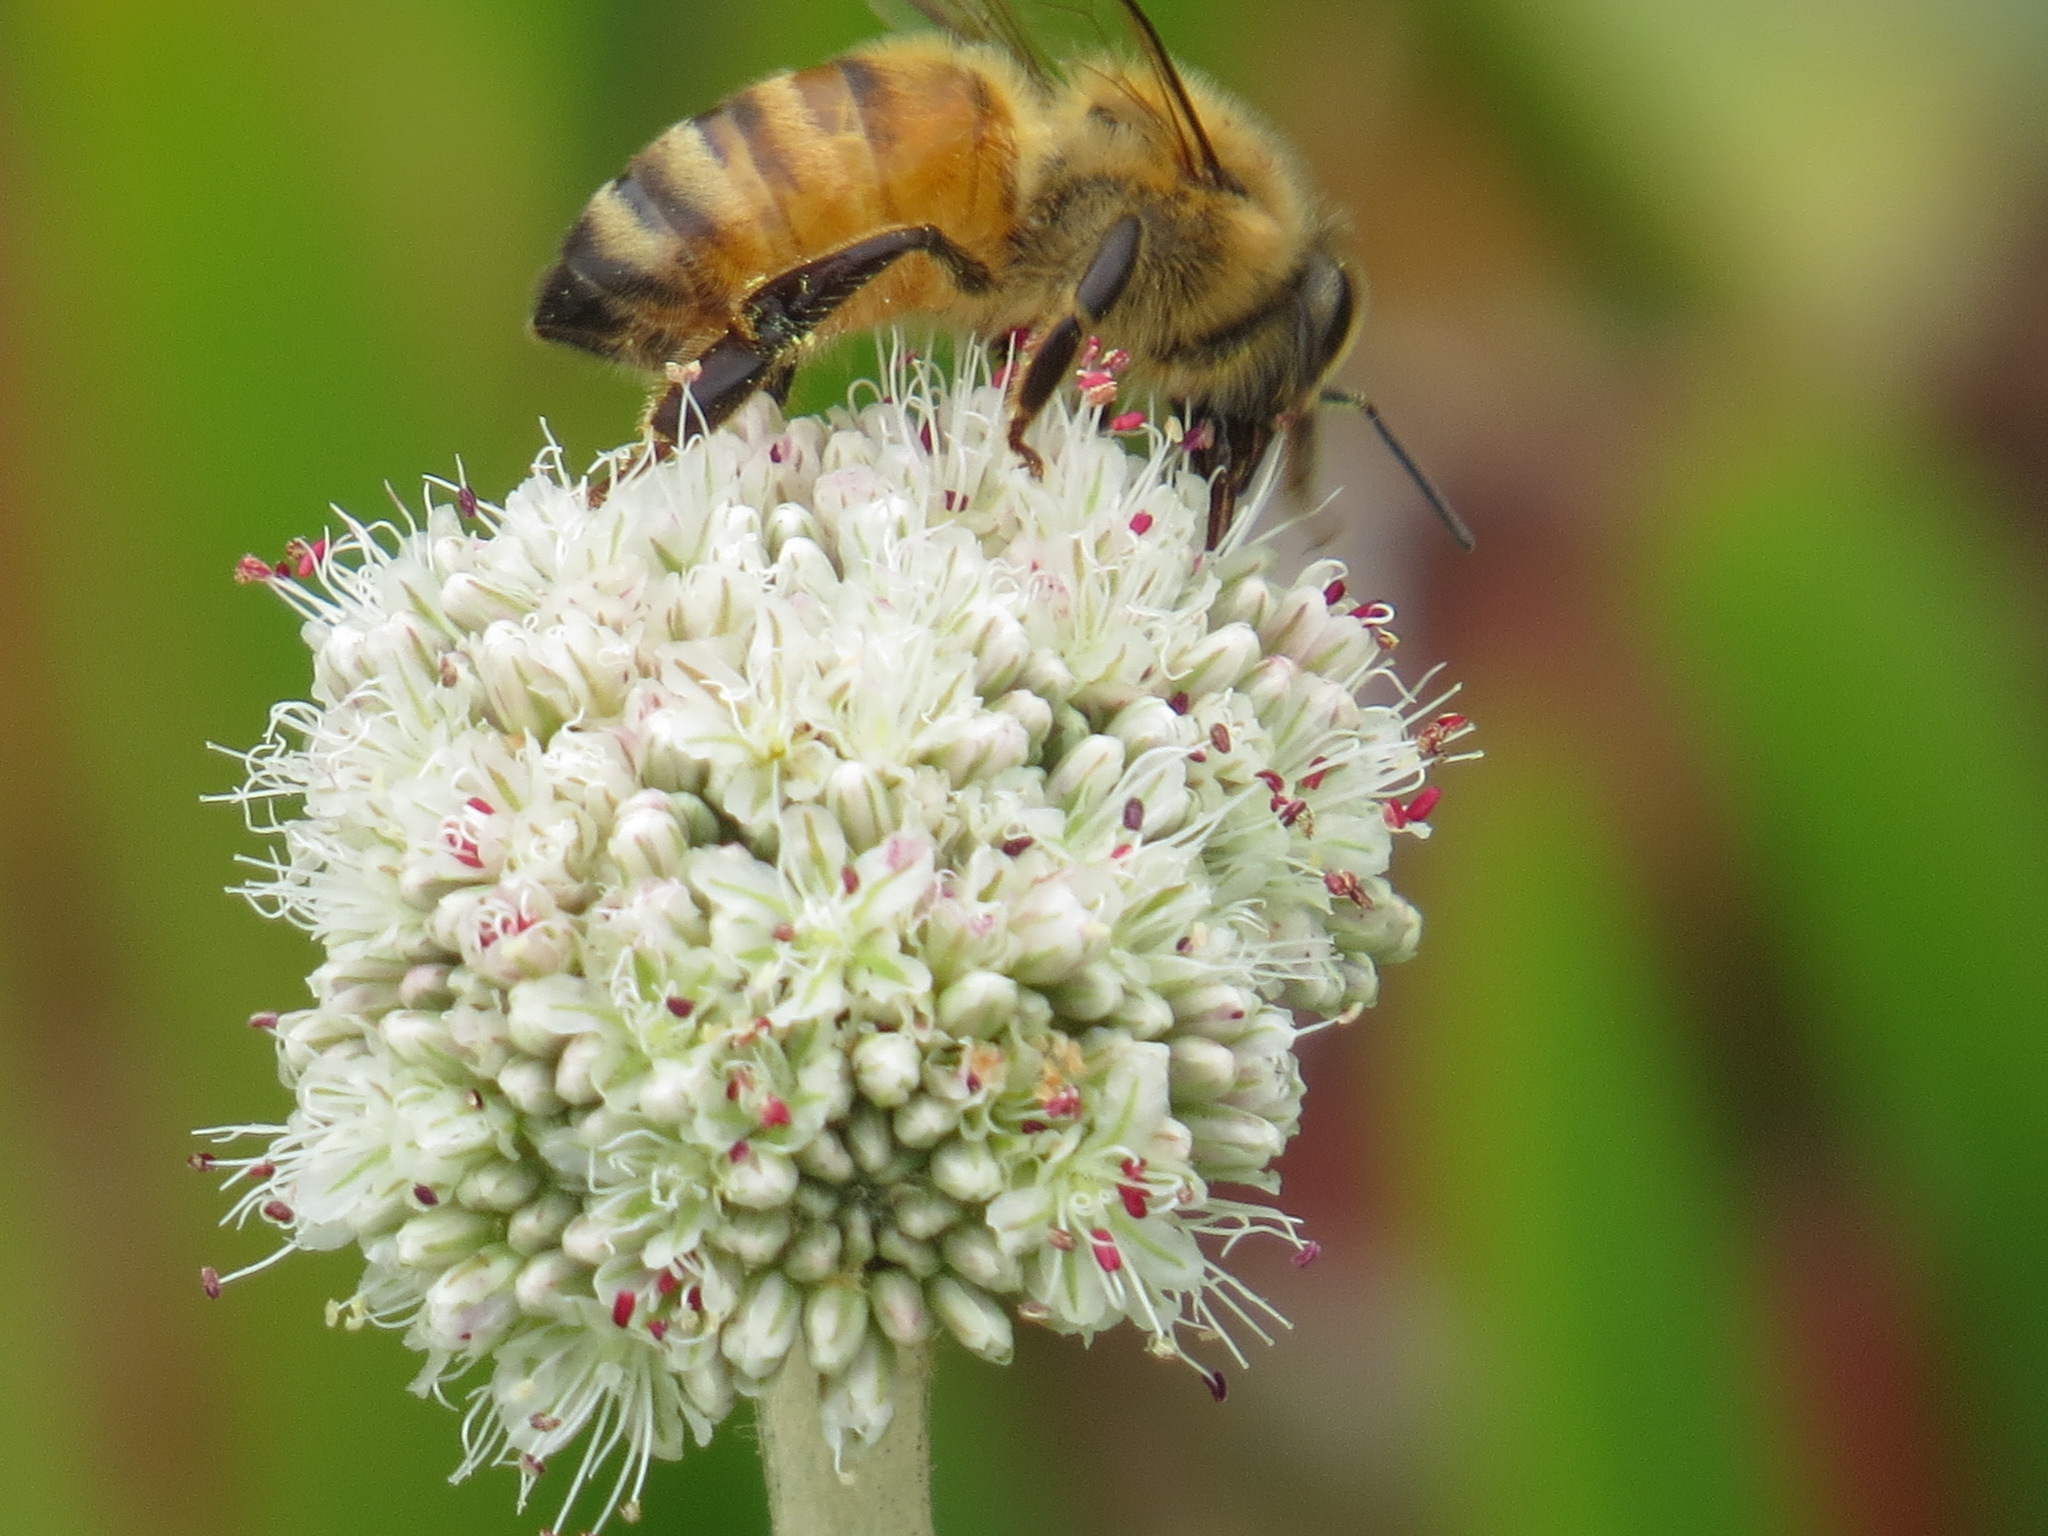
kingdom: Animalia
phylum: Arthropoda
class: Insecta
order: Hymenoptera
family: Apidae
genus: Apis
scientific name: Apis mellifera
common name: Honey bee
